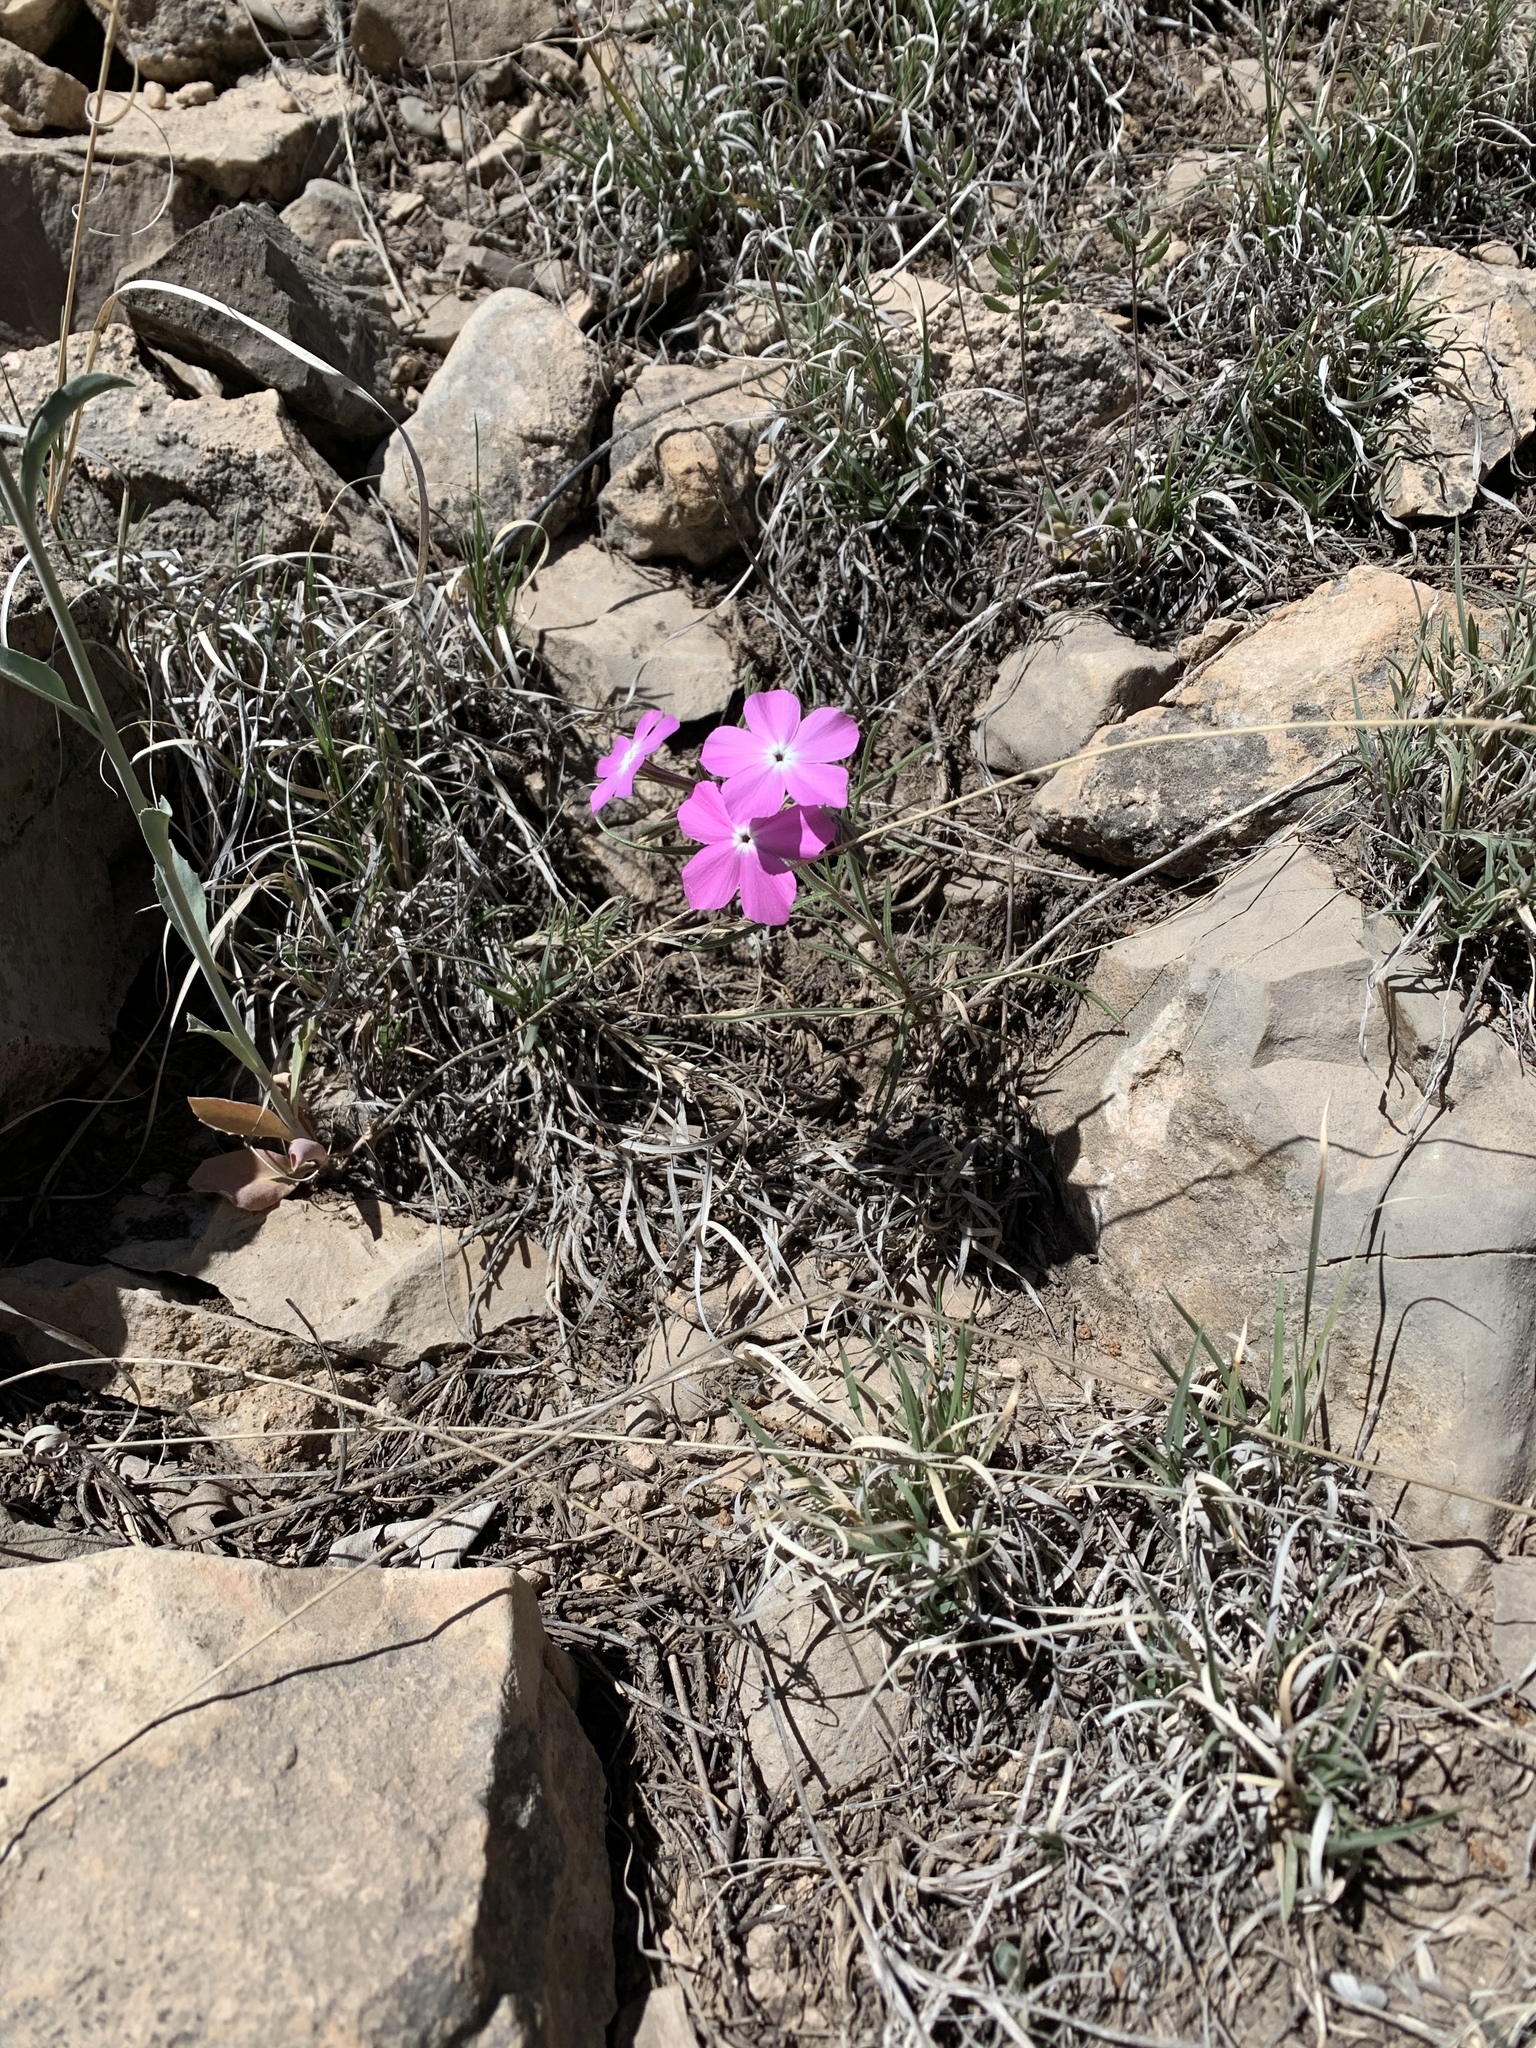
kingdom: Plantae
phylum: Tracheophyta
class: Magnoliopsida
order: Ericales
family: Polemoniaceae
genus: Phlox
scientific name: Phlox nana
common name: Santa fe phlox
